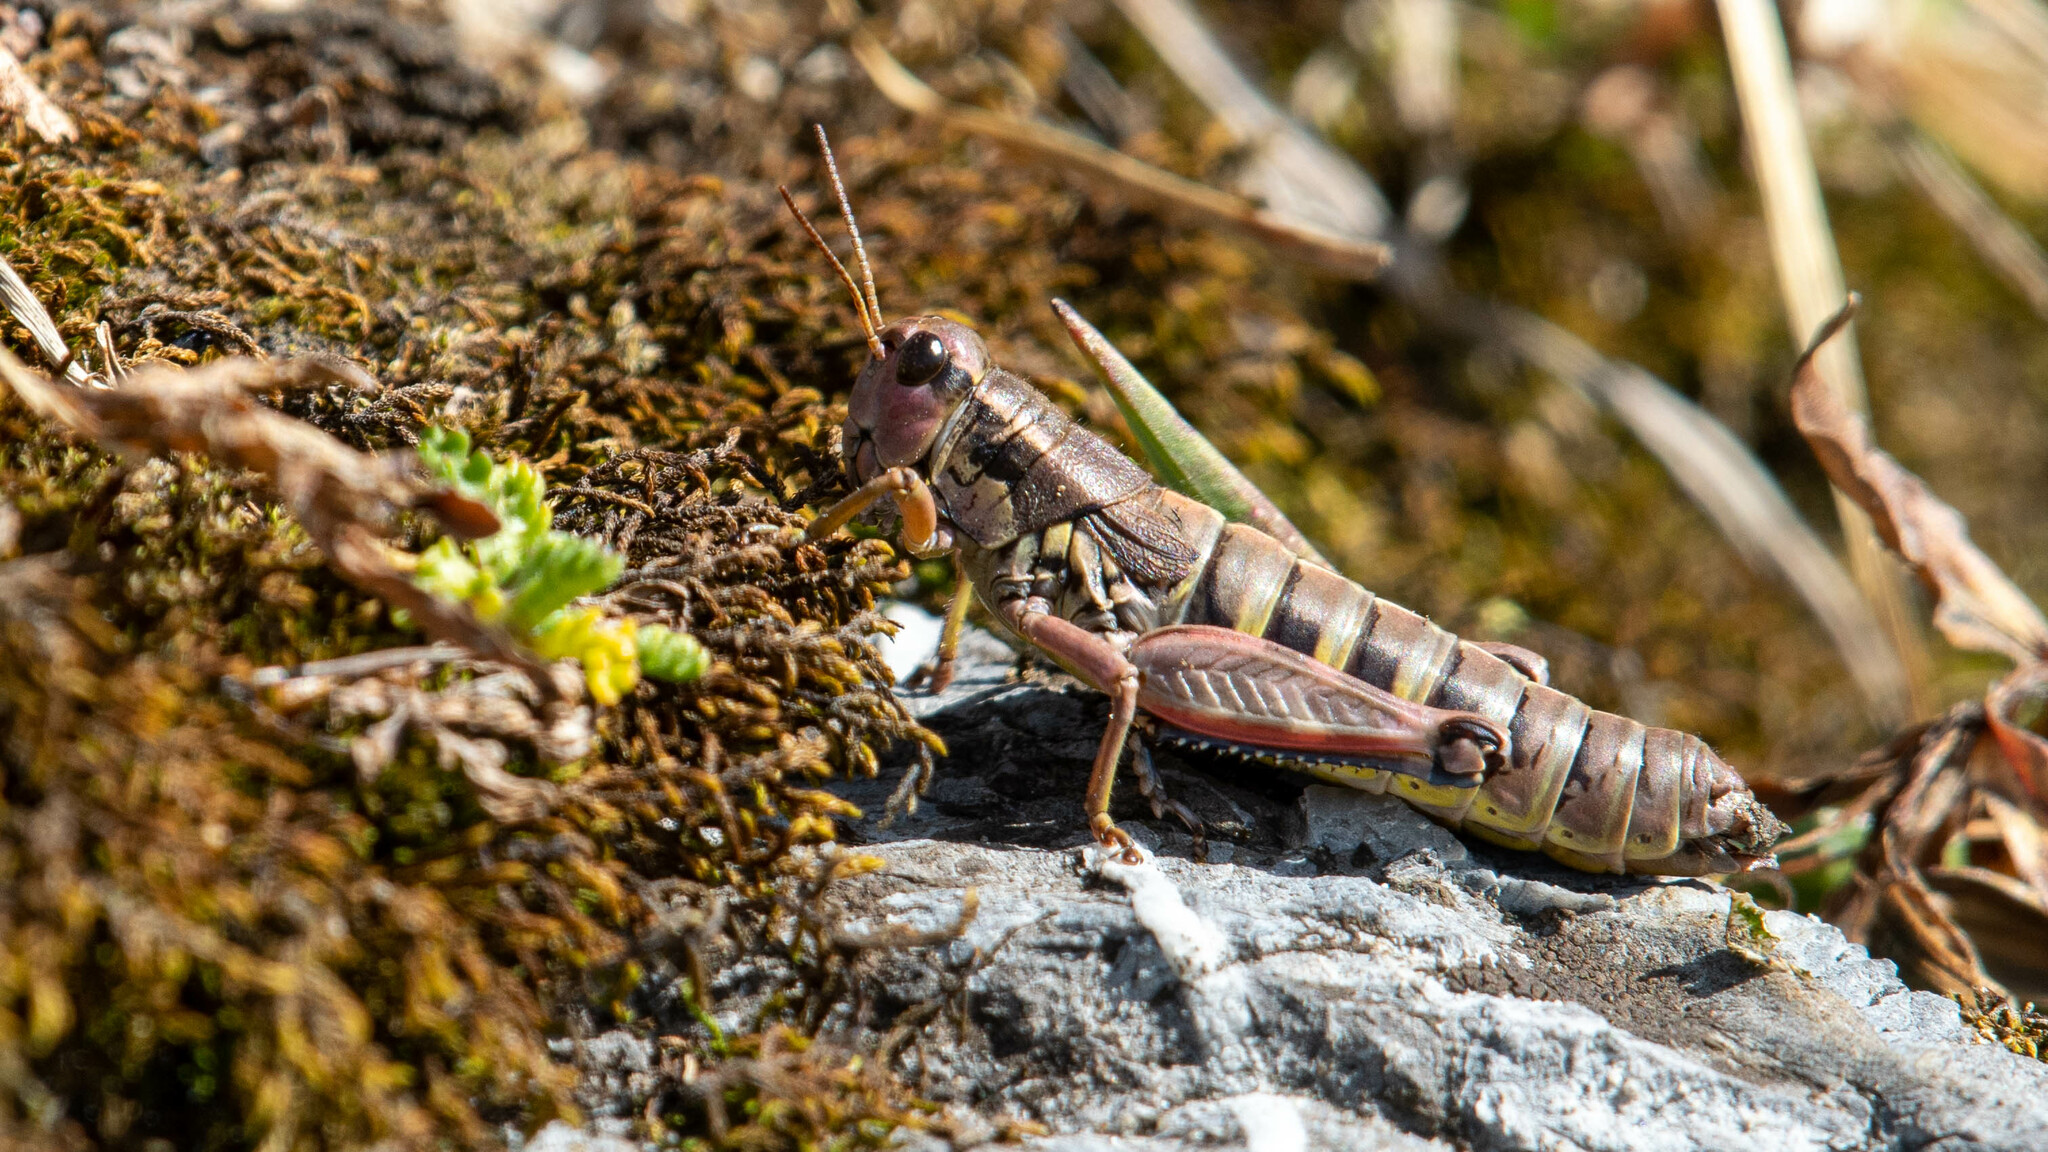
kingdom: Animalia
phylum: Arthropoda
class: Insecta
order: Orthoptera
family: Acrididae
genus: Podisma
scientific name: Podisma pedestris
